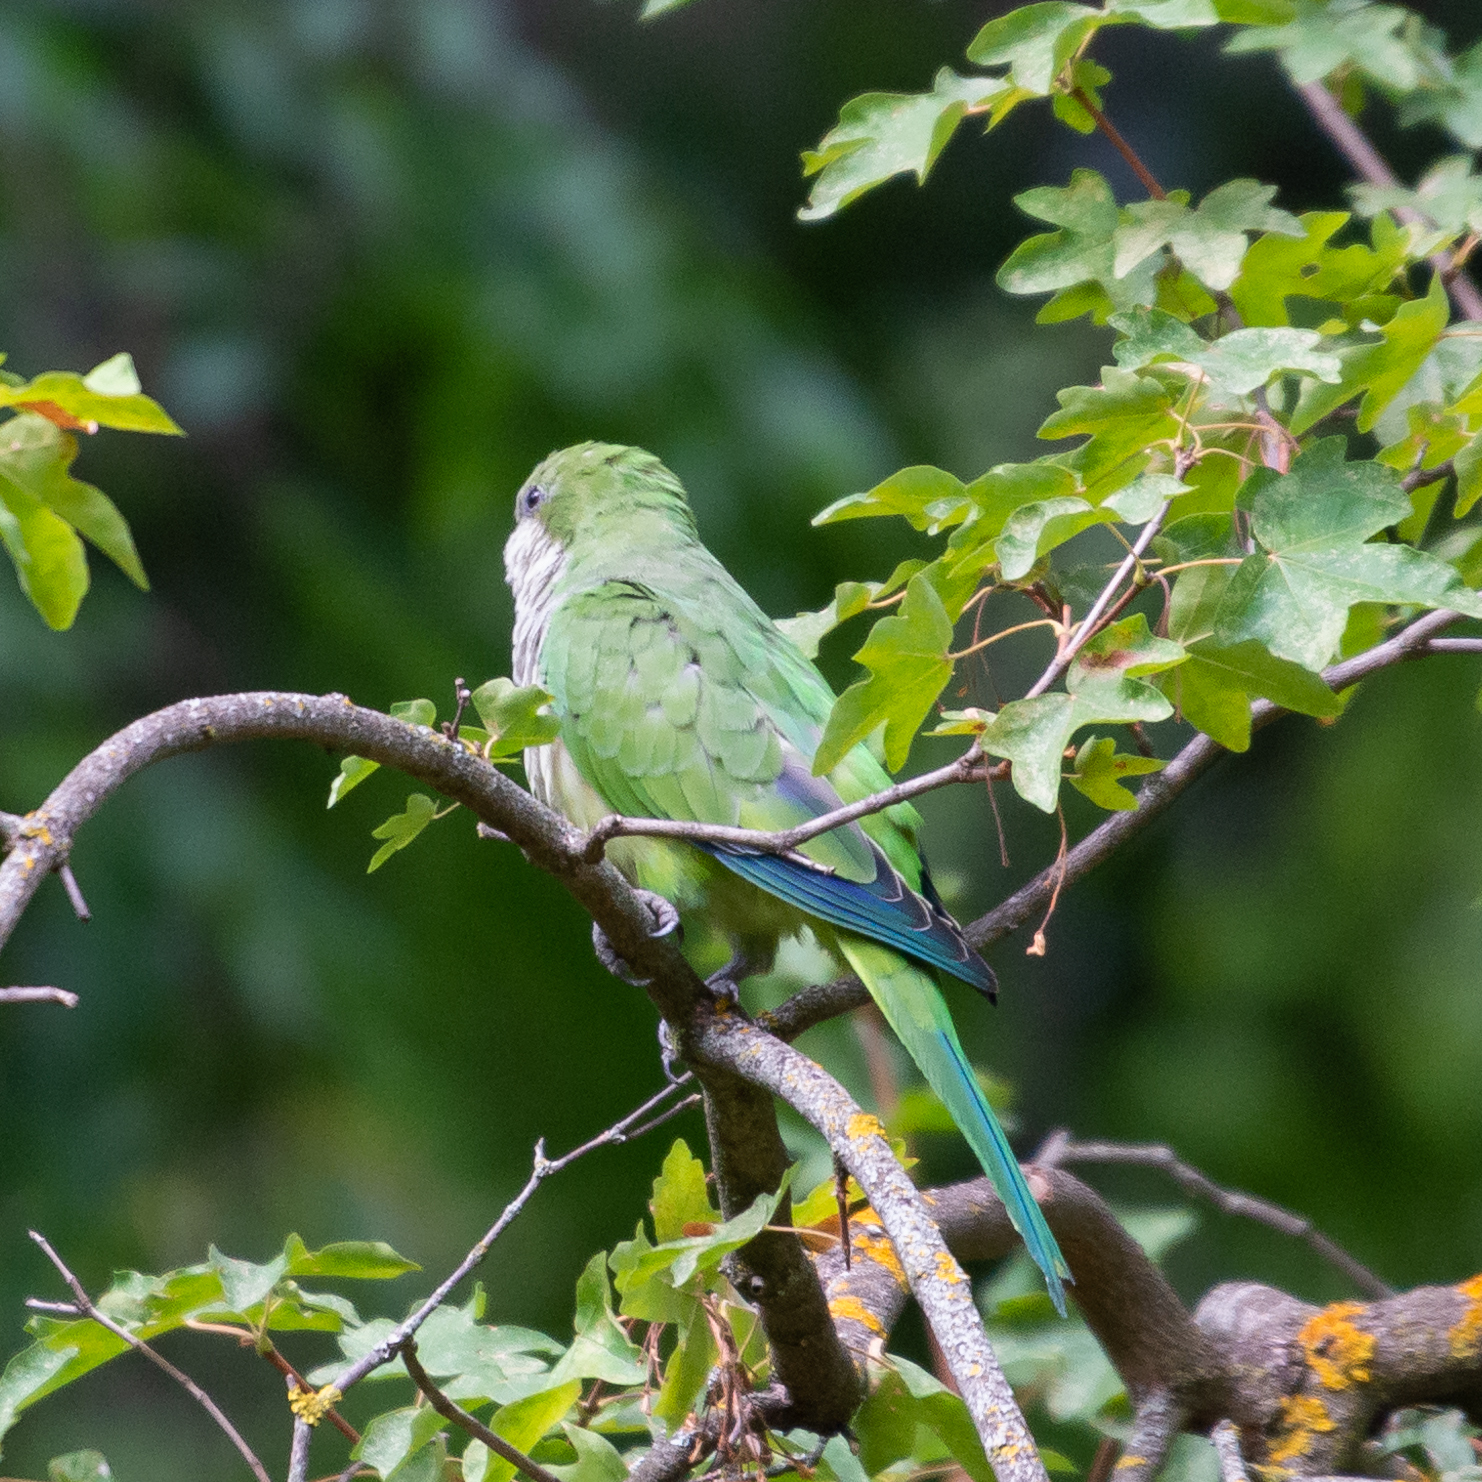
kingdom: Animalia
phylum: Chordata
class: Aves
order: Psittaciformes
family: Psittacidae
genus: Myiopsitta
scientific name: Myiopsitta monachus
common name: Monk parakeet
